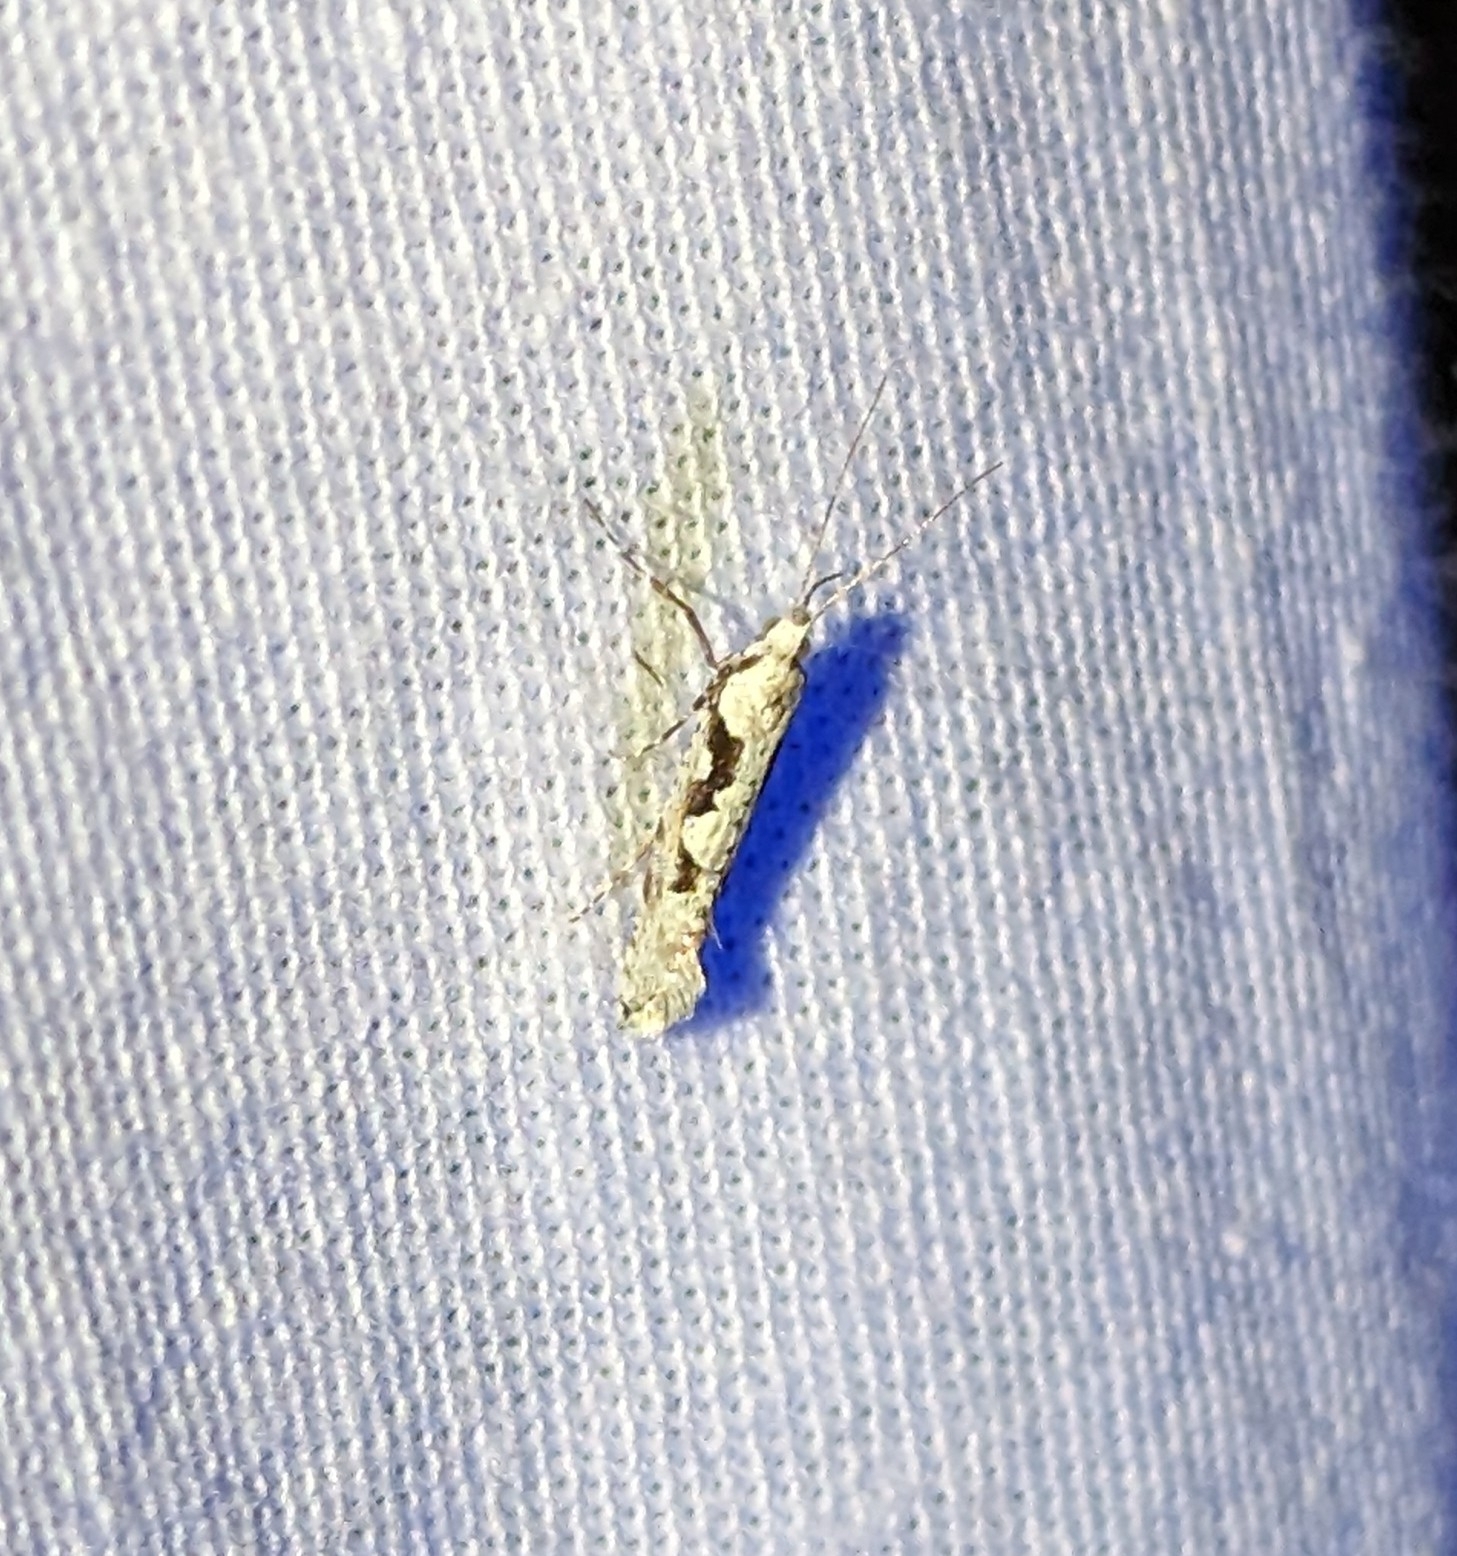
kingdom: Animalia
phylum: Arthropoda
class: Insecta
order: Lepidoptera
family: Plutellidae
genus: Rhigognostis
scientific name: Rhigognostis interrupta
